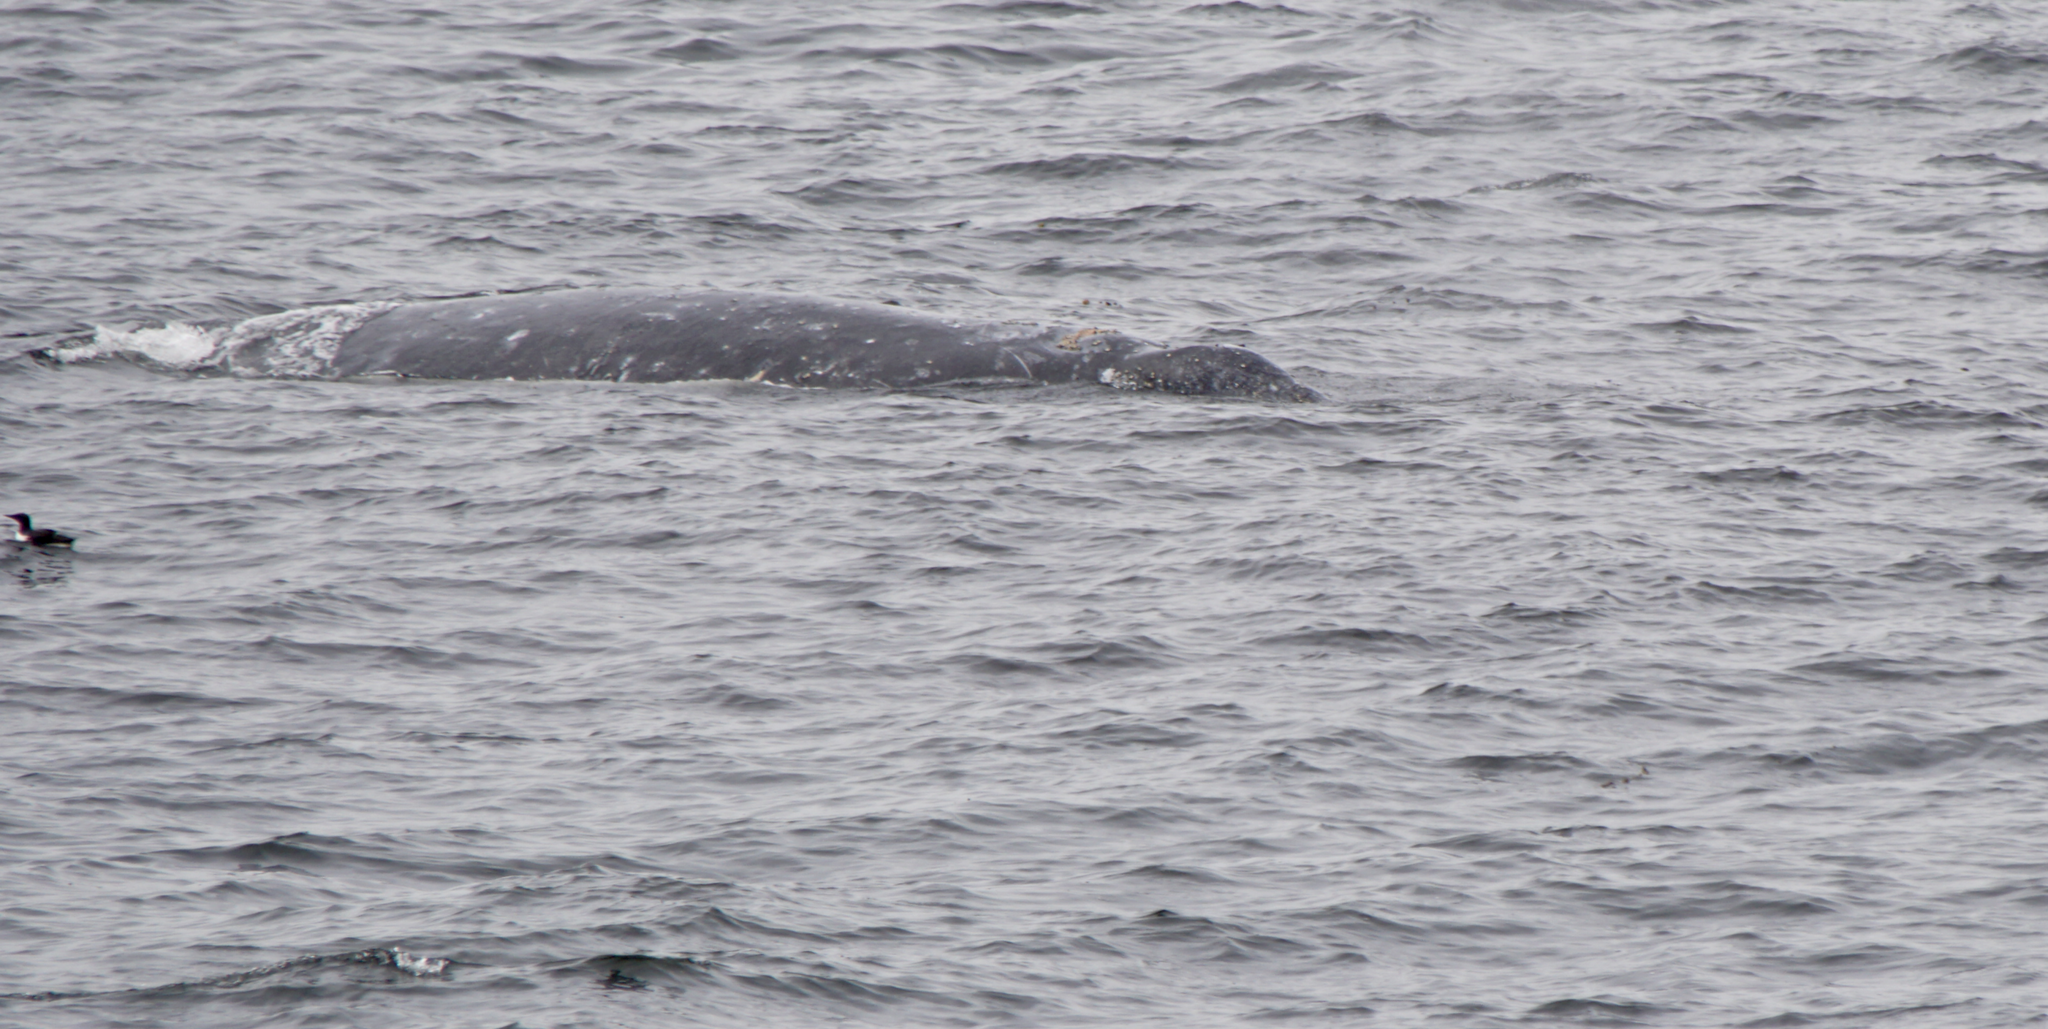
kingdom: Animalia
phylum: Chordata
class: Mammalia
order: Cetacea
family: Eschrichtiidae
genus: Eschrichtius
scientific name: Eschrichtius robustus
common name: Gray whale
